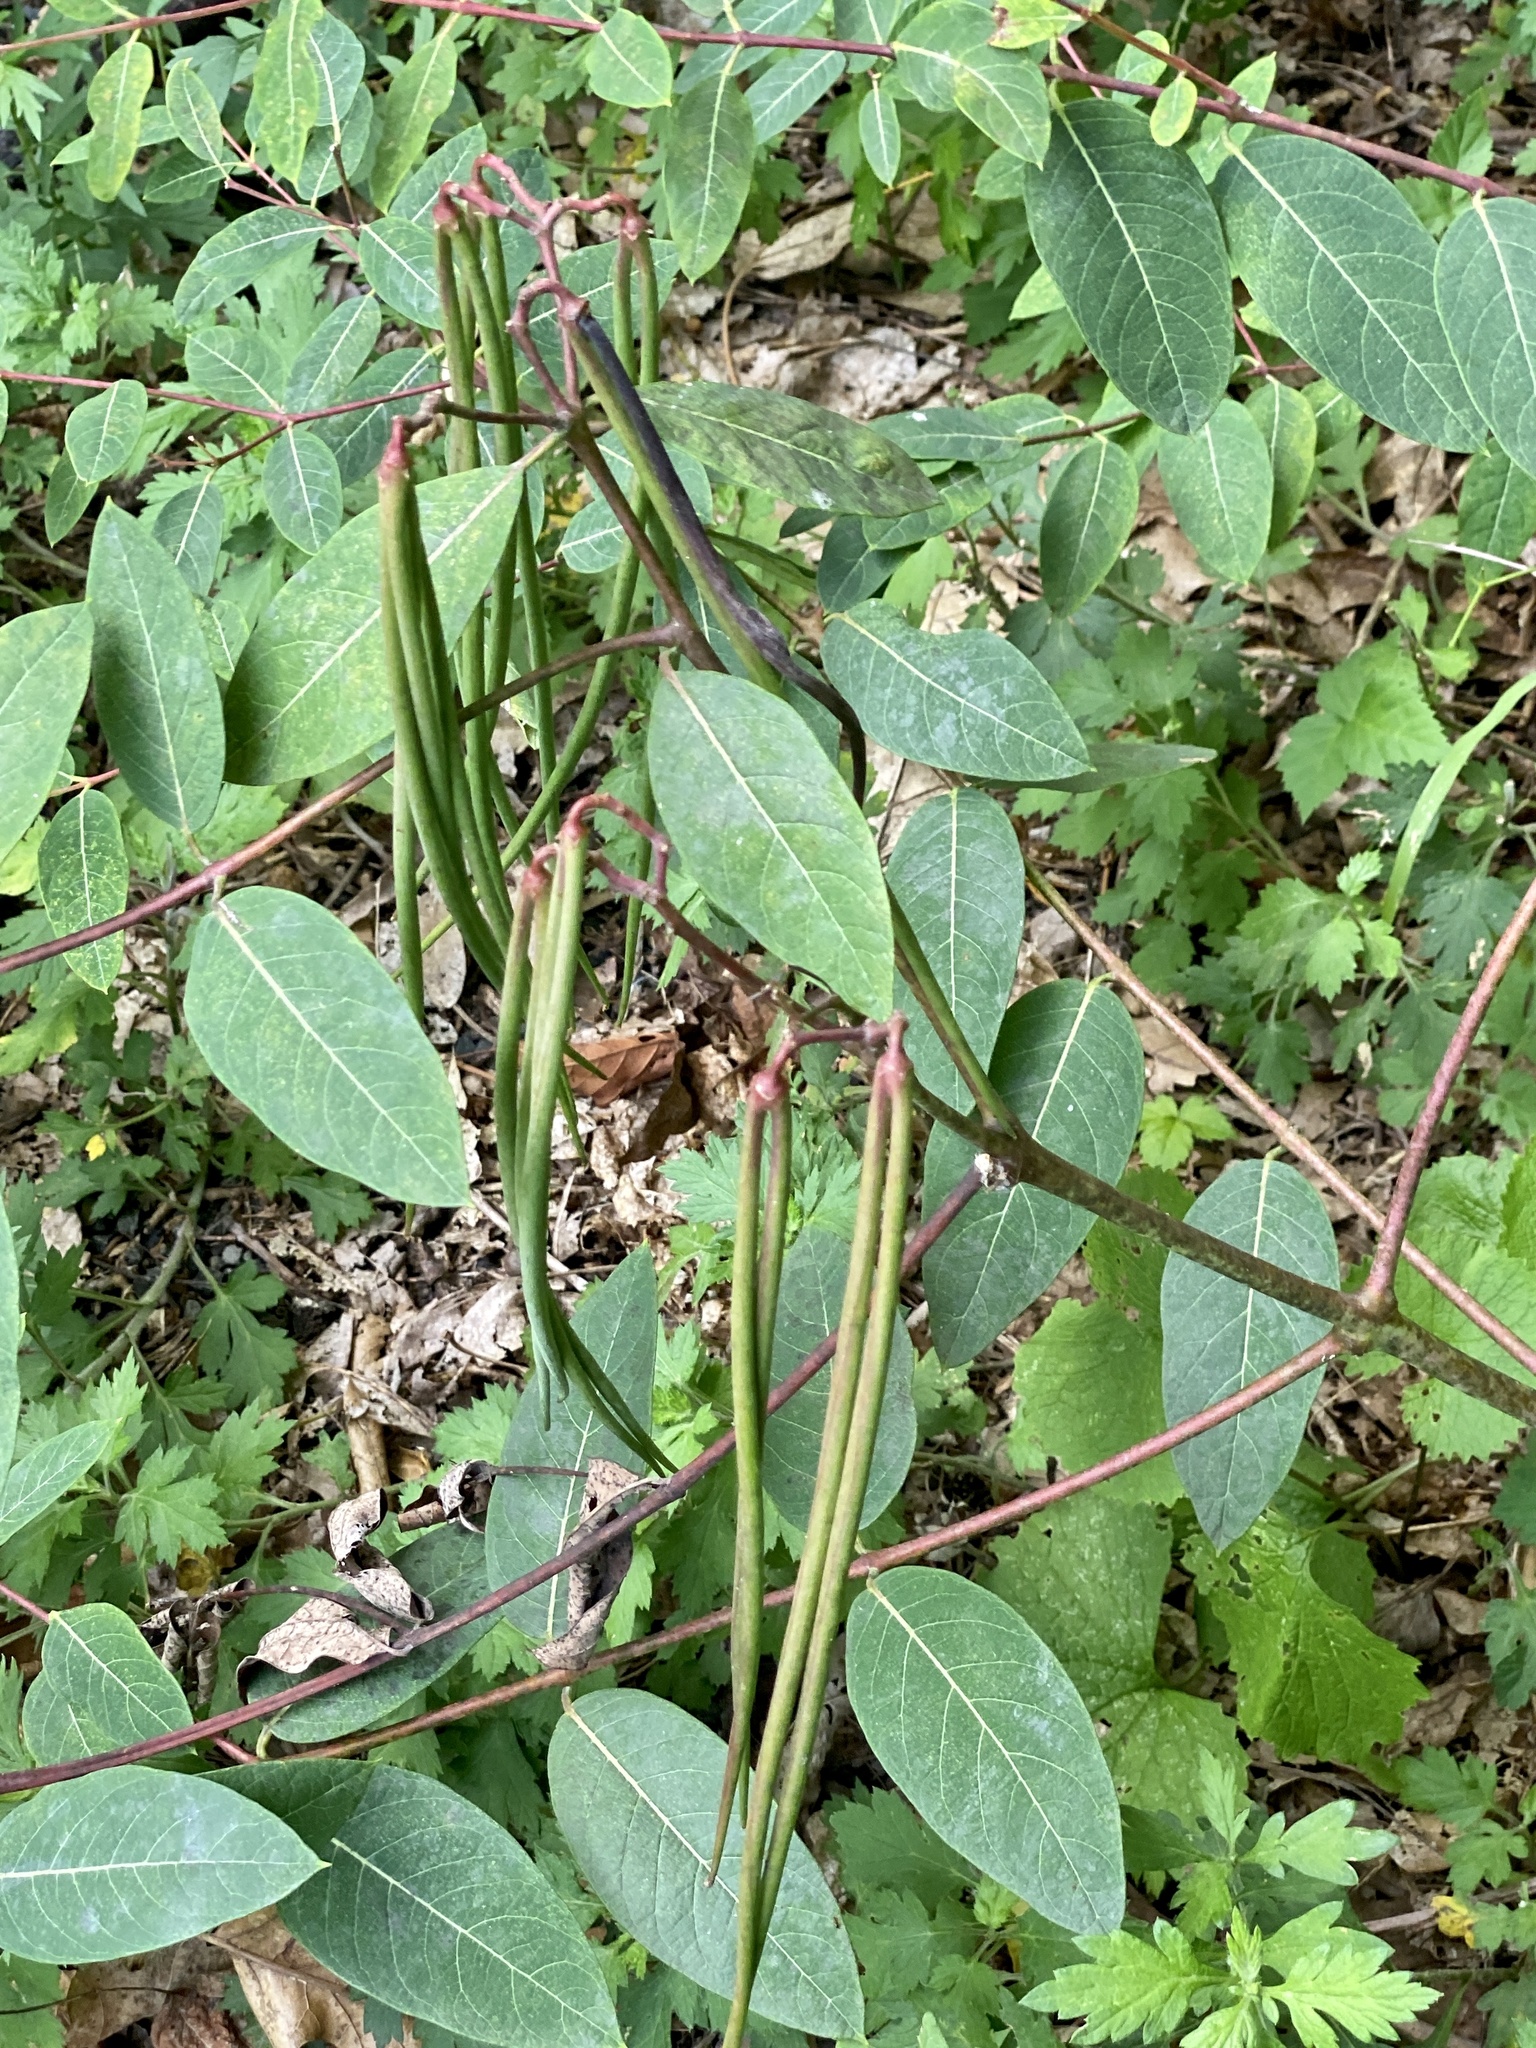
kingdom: Plantae
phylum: Tracheophyta
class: Magnoliopsida
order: Gentianales
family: Apocynaceae
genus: Apocynum
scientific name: Apocynum cannabinum
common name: Hemp dogbane
